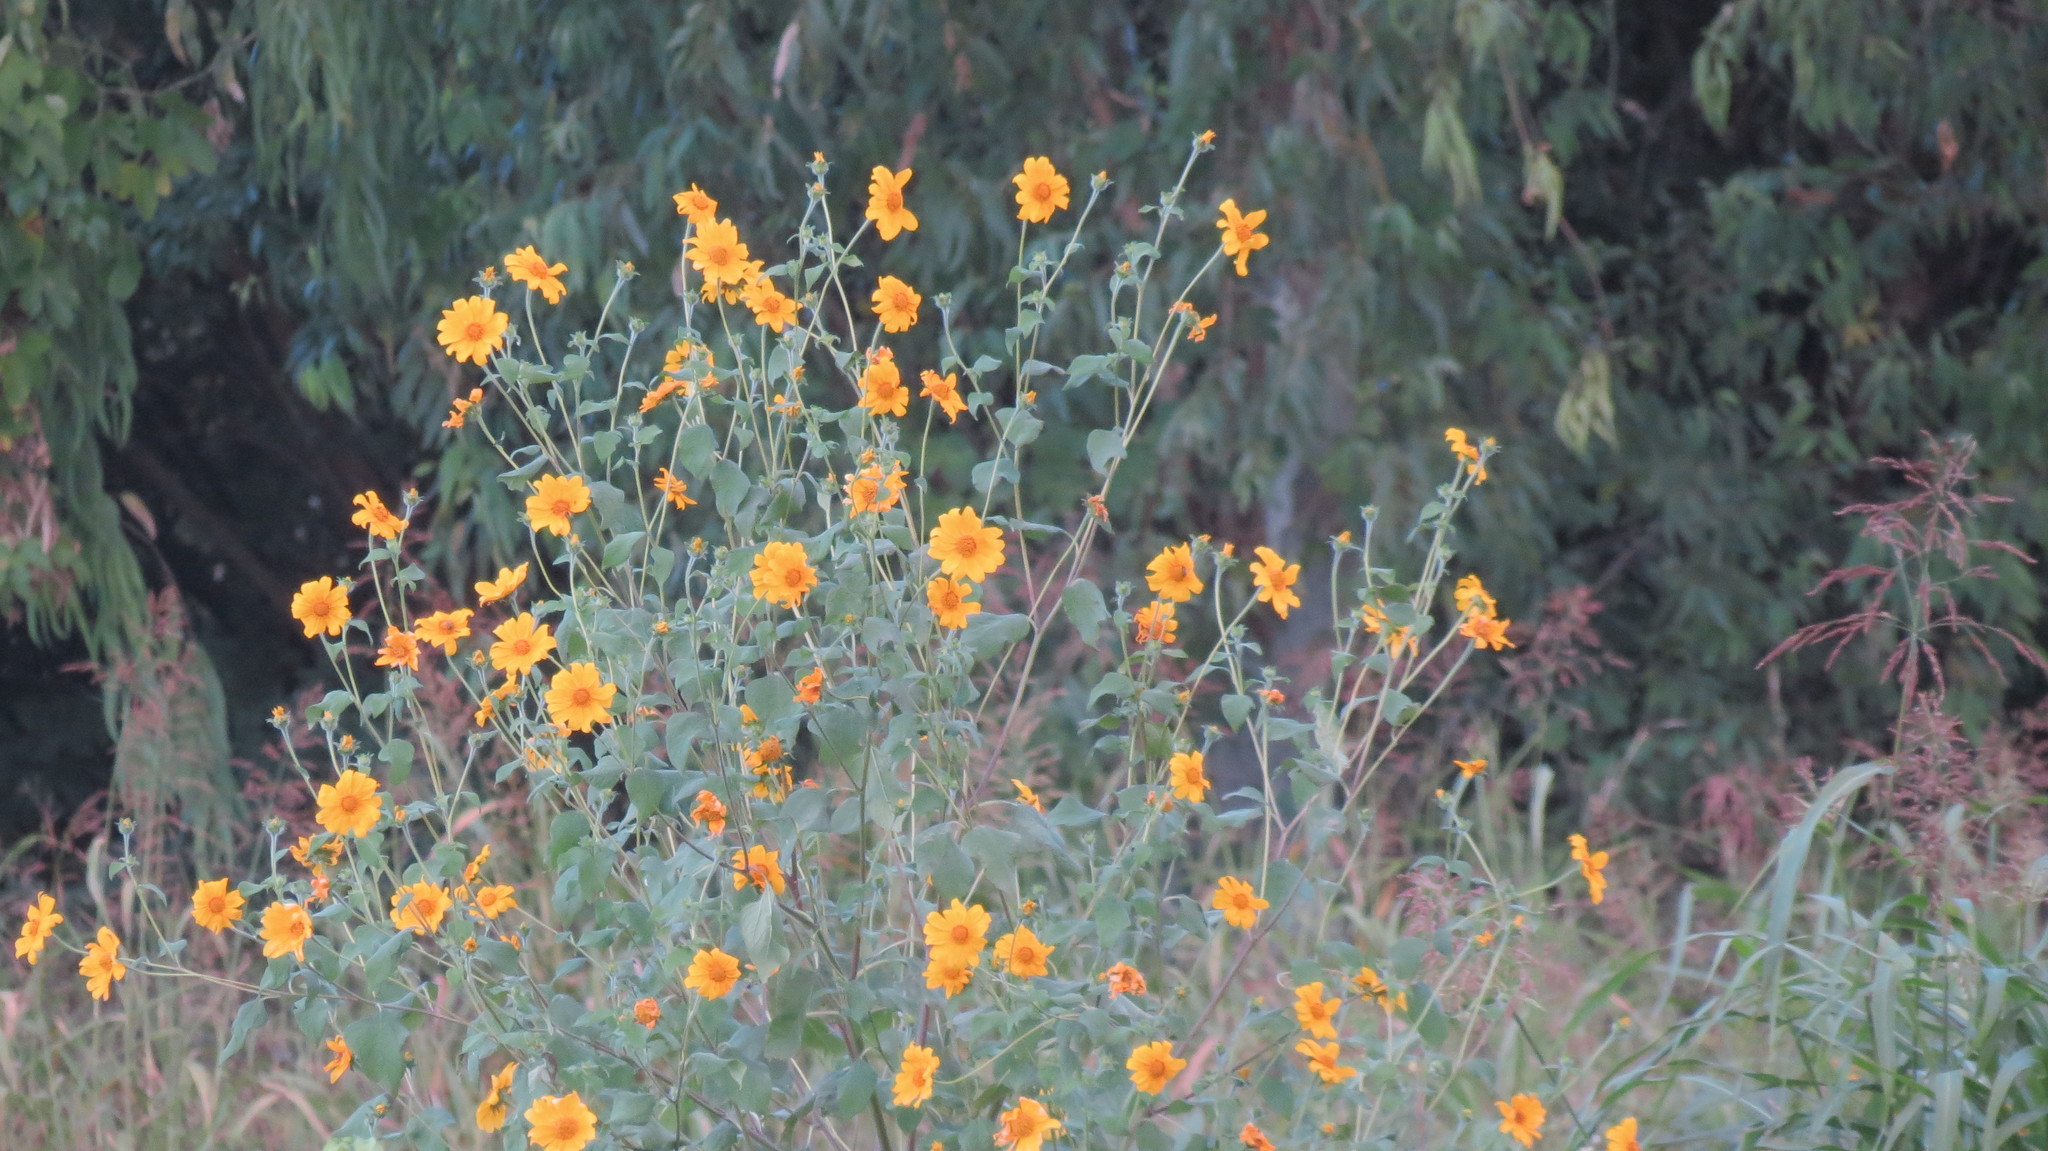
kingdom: Plantae
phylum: Tracheophyta
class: Magnoliopsida
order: Asterales
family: Asteraceae
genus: Tithonia
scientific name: Tithonia tubaeformis
